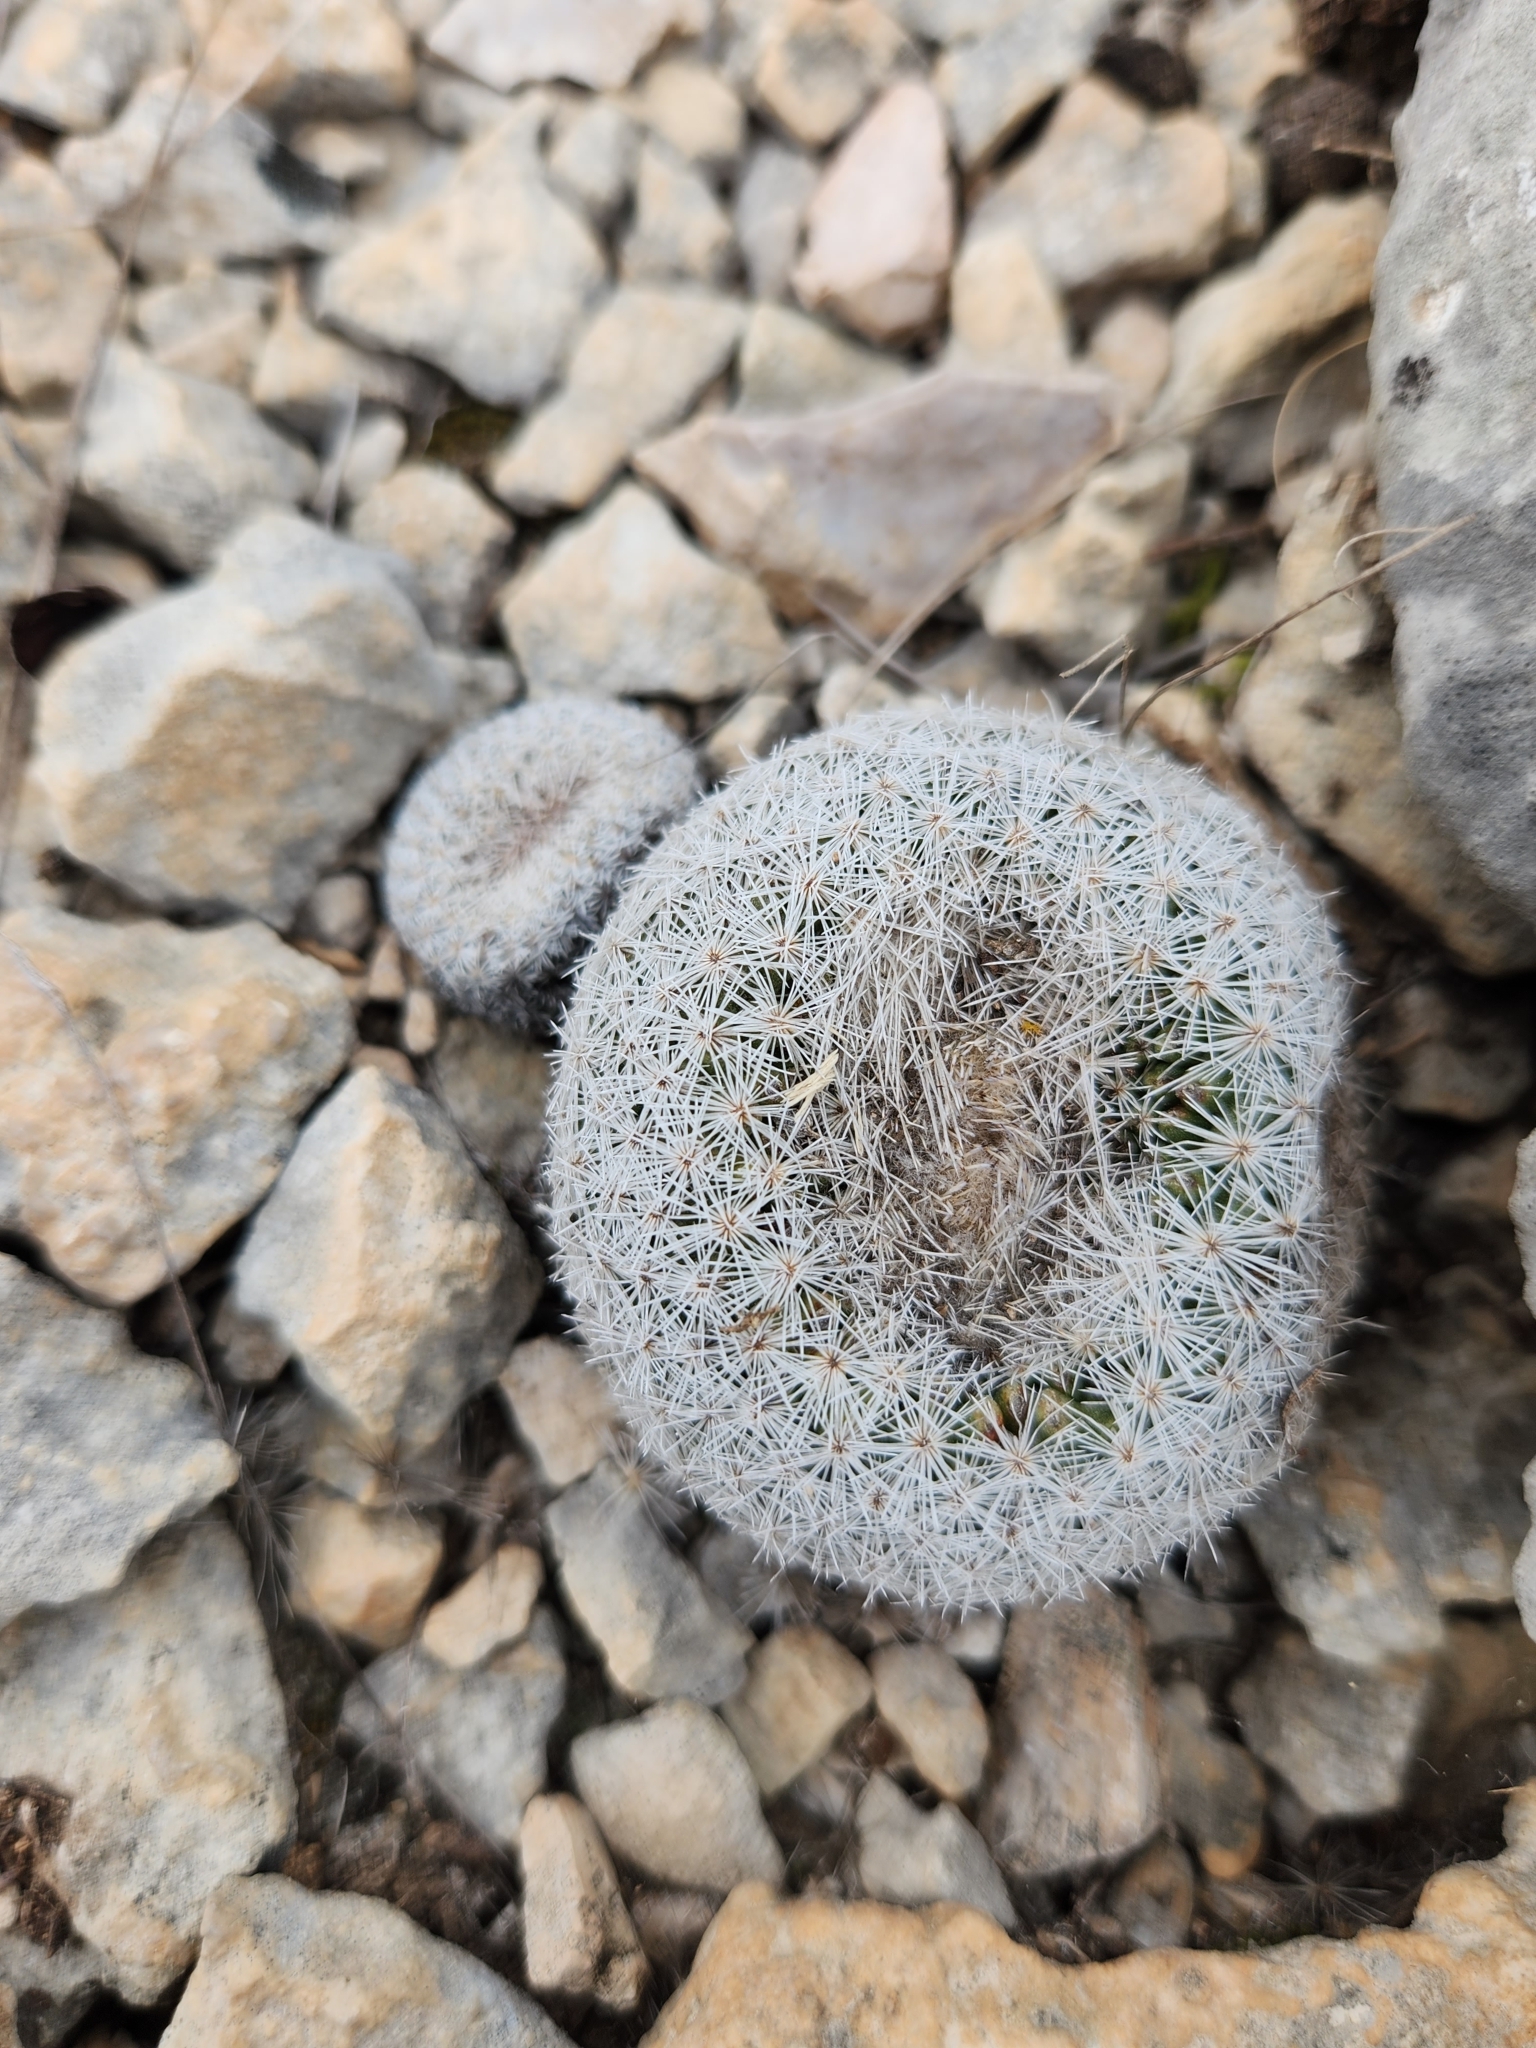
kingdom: Plantae
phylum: Tracheophyta
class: Magnoliopsida
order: Caryophyllales
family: Cactaceae
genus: Epithelantha
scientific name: Epithelantha micromeris
